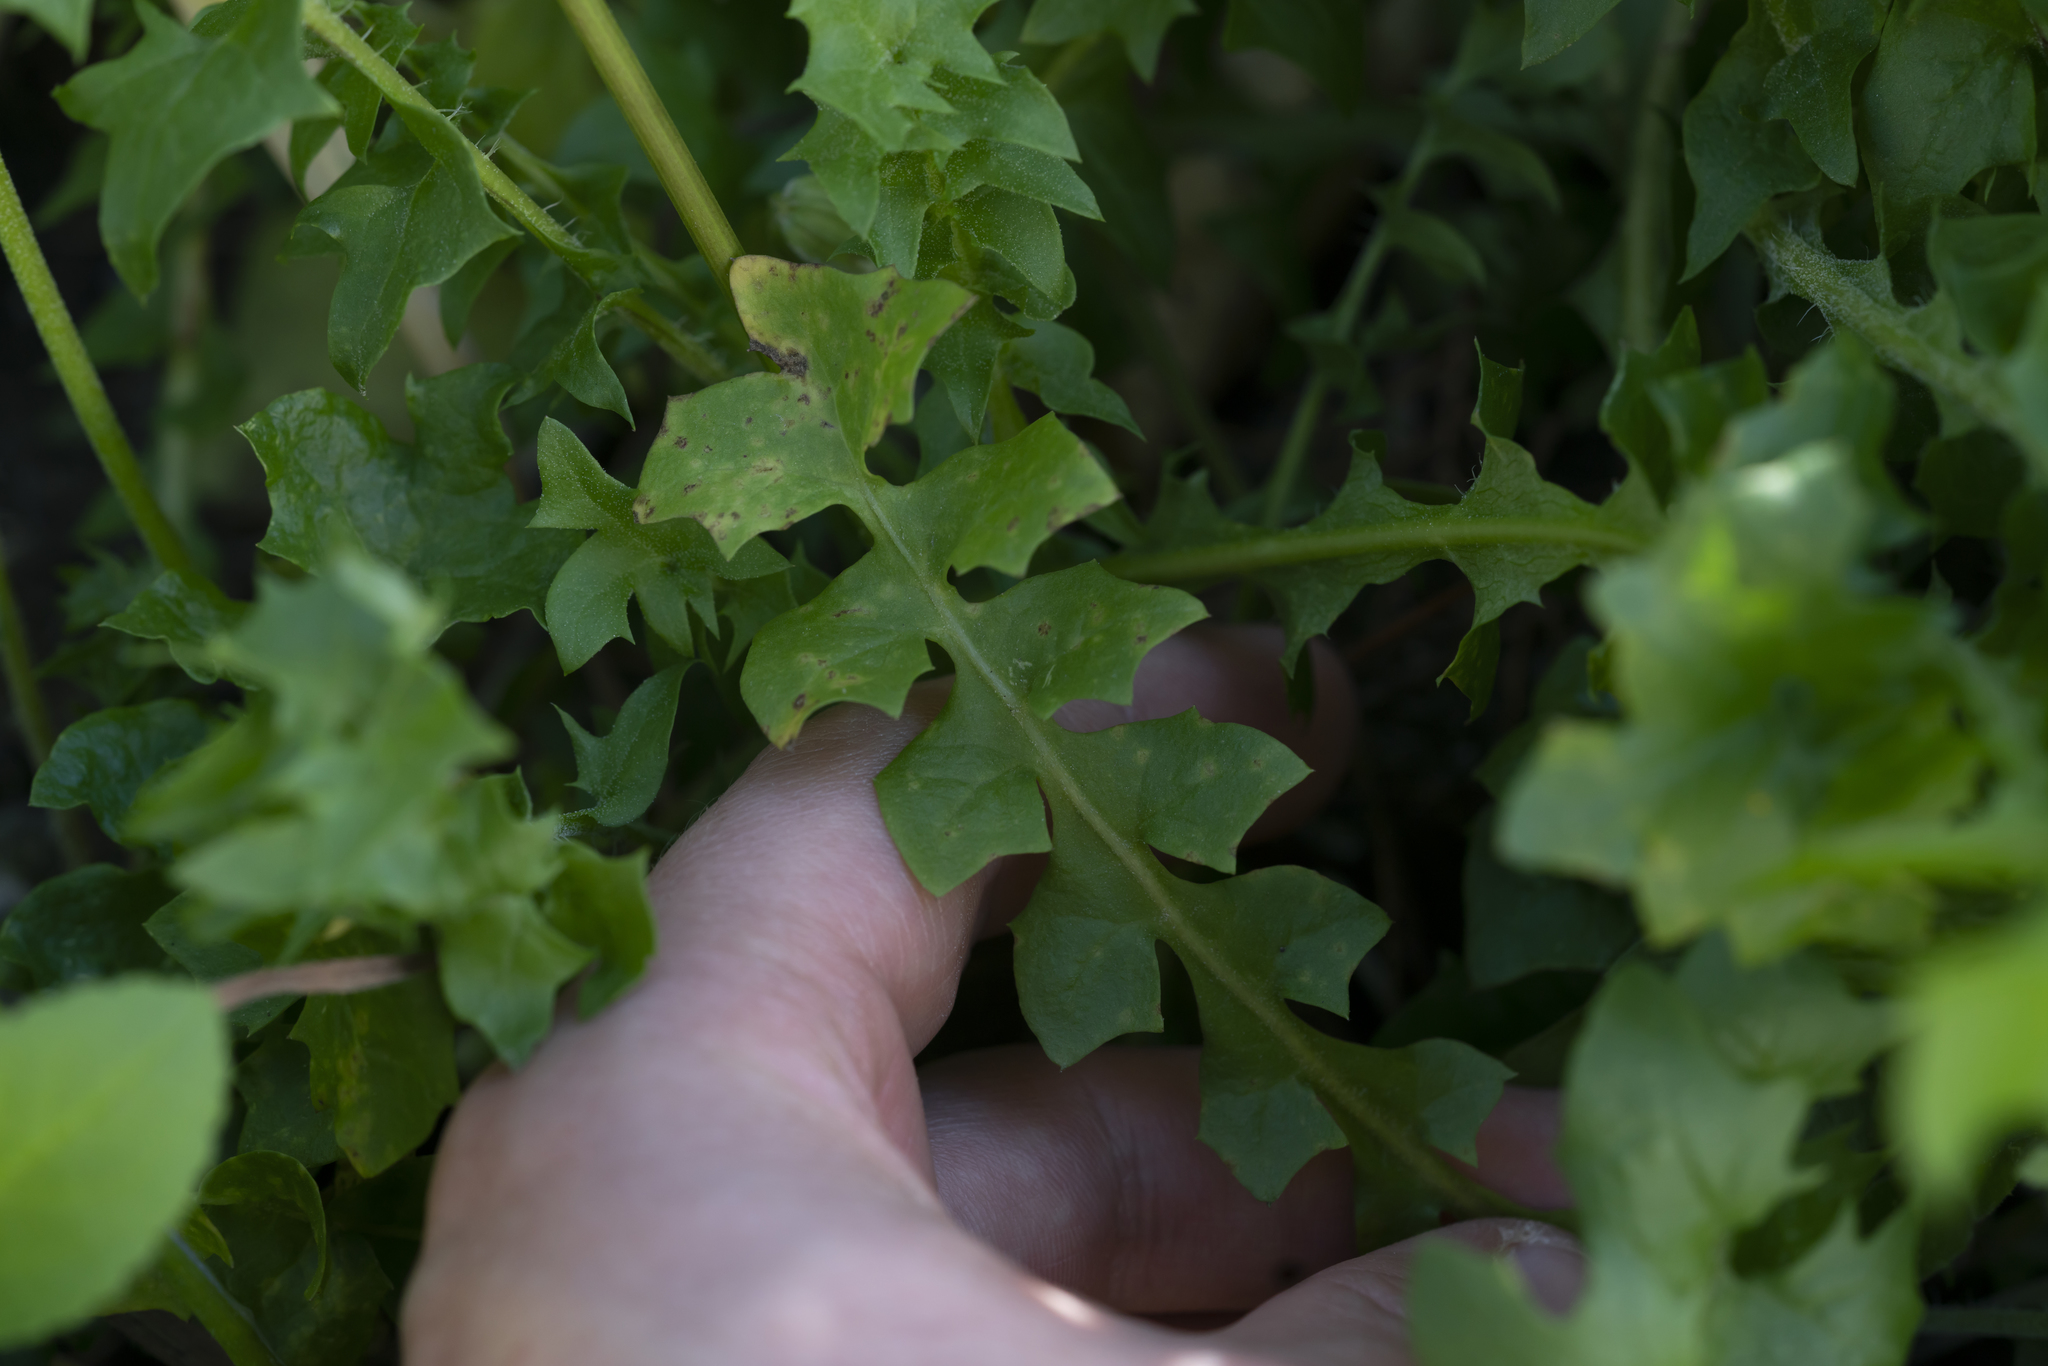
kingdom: Plantae
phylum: Tracheophyta
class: Magnoliopsida
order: Asterales
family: Asteraceae
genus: Hyoseris
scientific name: Hyoseris radiata
